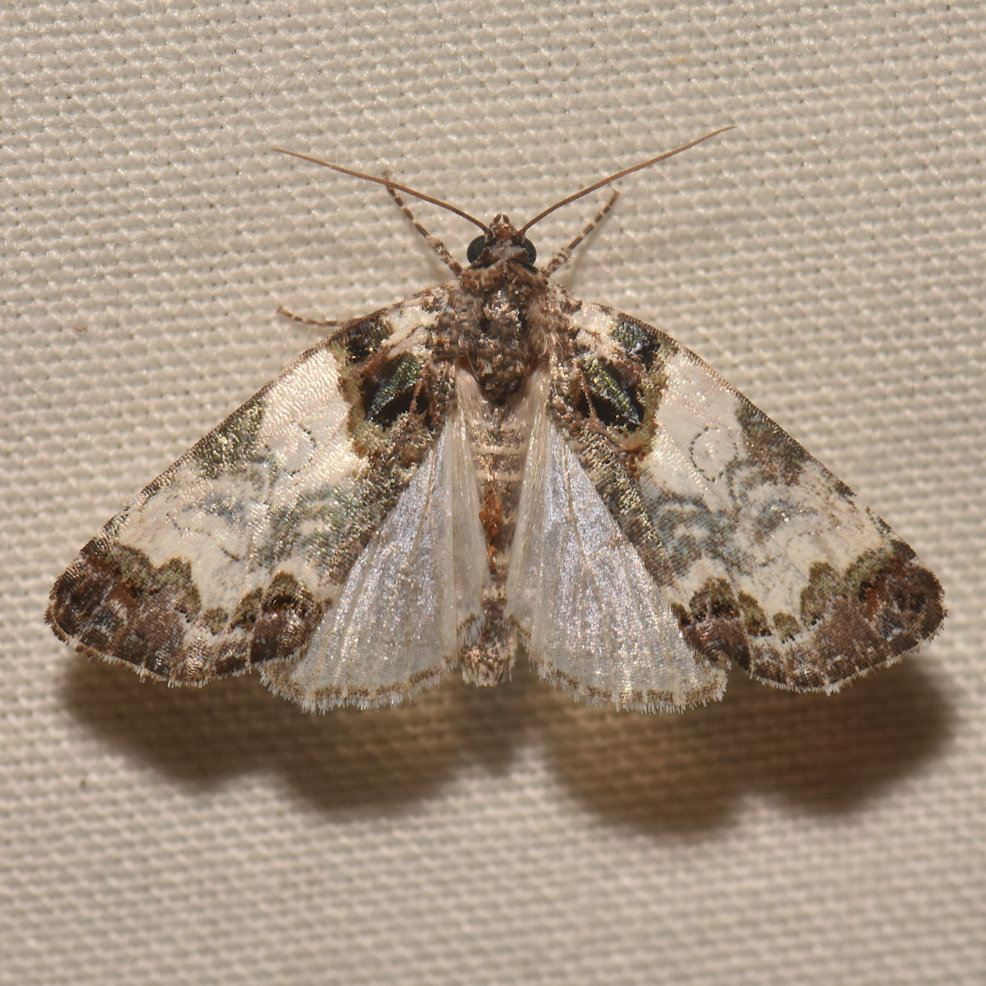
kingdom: Animalia
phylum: Arthropoda
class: Insecta
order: Lepidoptera
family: Noctuidae
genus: Cerma
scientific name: Cerma cerintha
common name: Tufted bird-dropping moth
